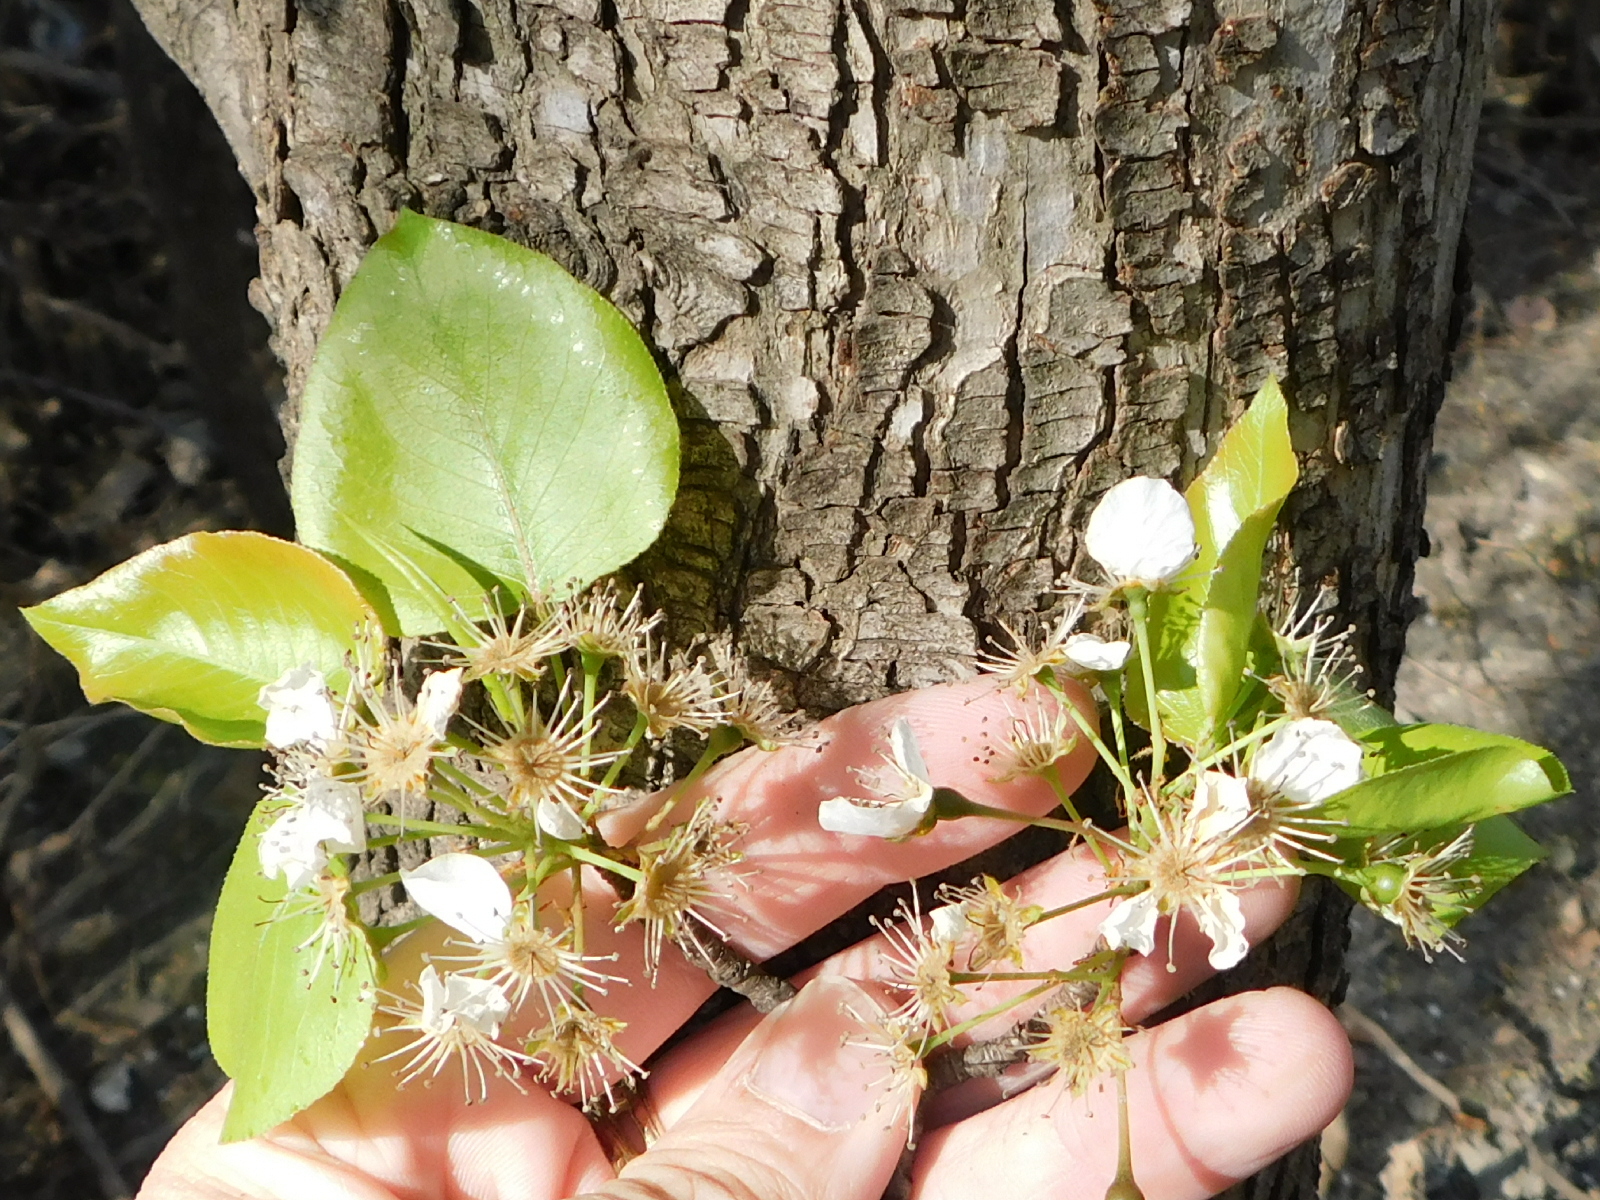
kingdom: Plantae
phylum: Tracheophyta
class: Magnoliopsida
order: Rosales
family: Rosaceae
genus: Pyrus
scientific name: Pyrus calleryana
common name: Callery pear
